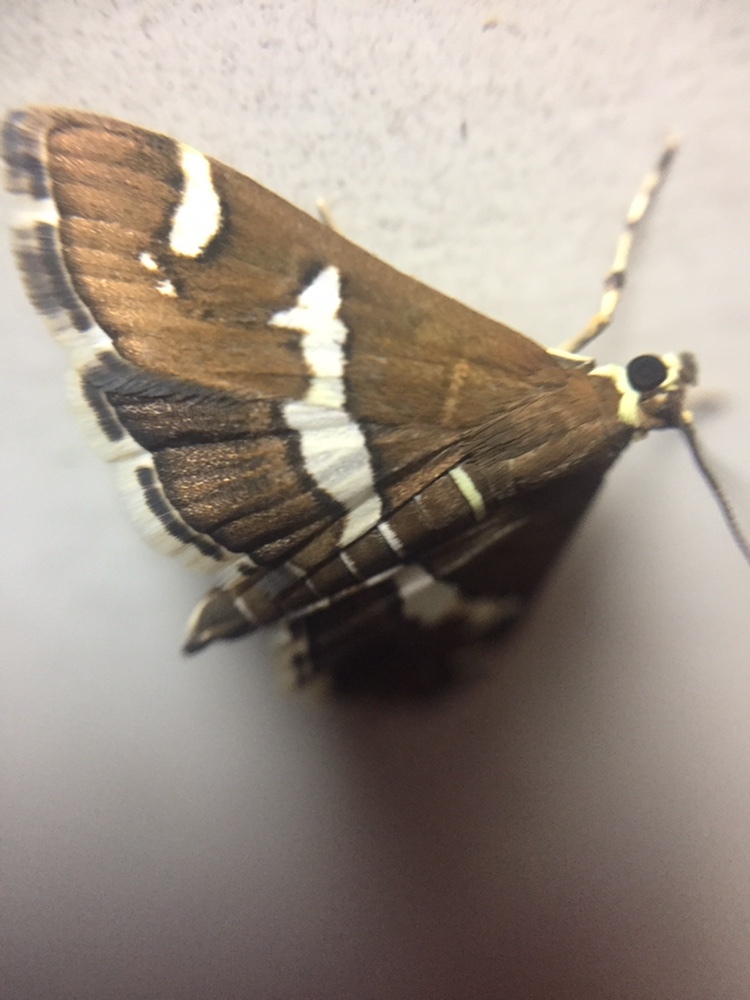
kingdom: Animalia
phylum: Arthropoda
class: Insecta
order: Lepidoptera
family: Crambidae
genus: Spoladea
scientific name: Spoladea recurvalis
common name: Beet webworm moth
